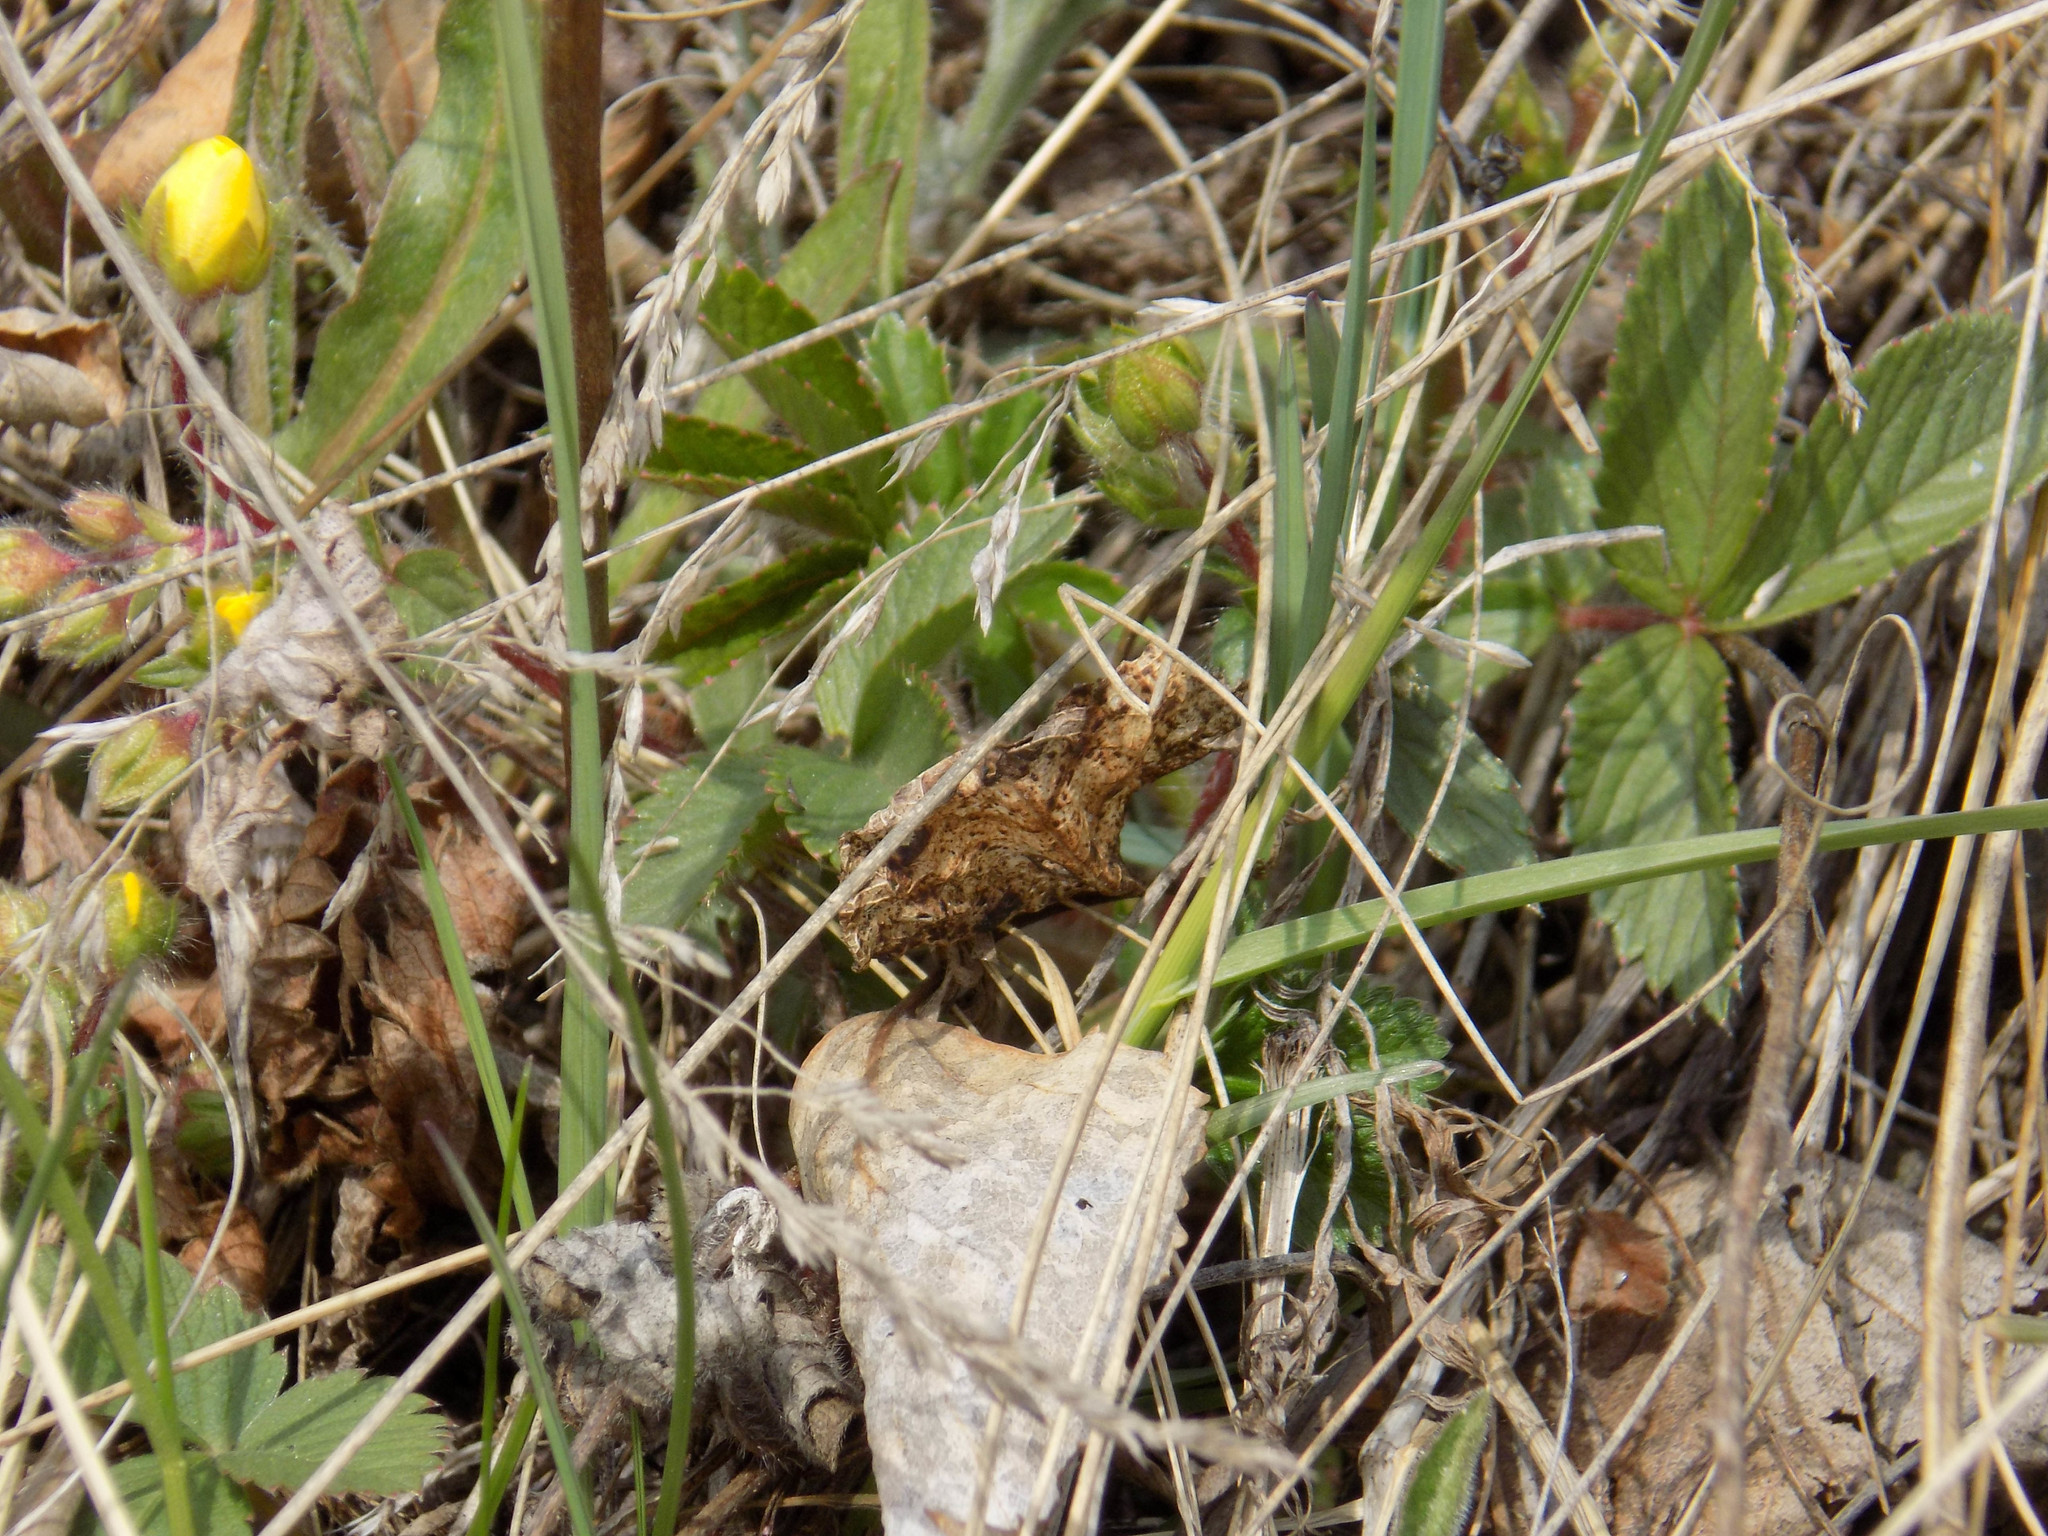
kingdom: Plantae
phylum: Tracheophyta
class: Magnoliopsida
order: Rosales
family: Rosaceae
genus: Potentilla
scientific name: Potentilla fragarioides
